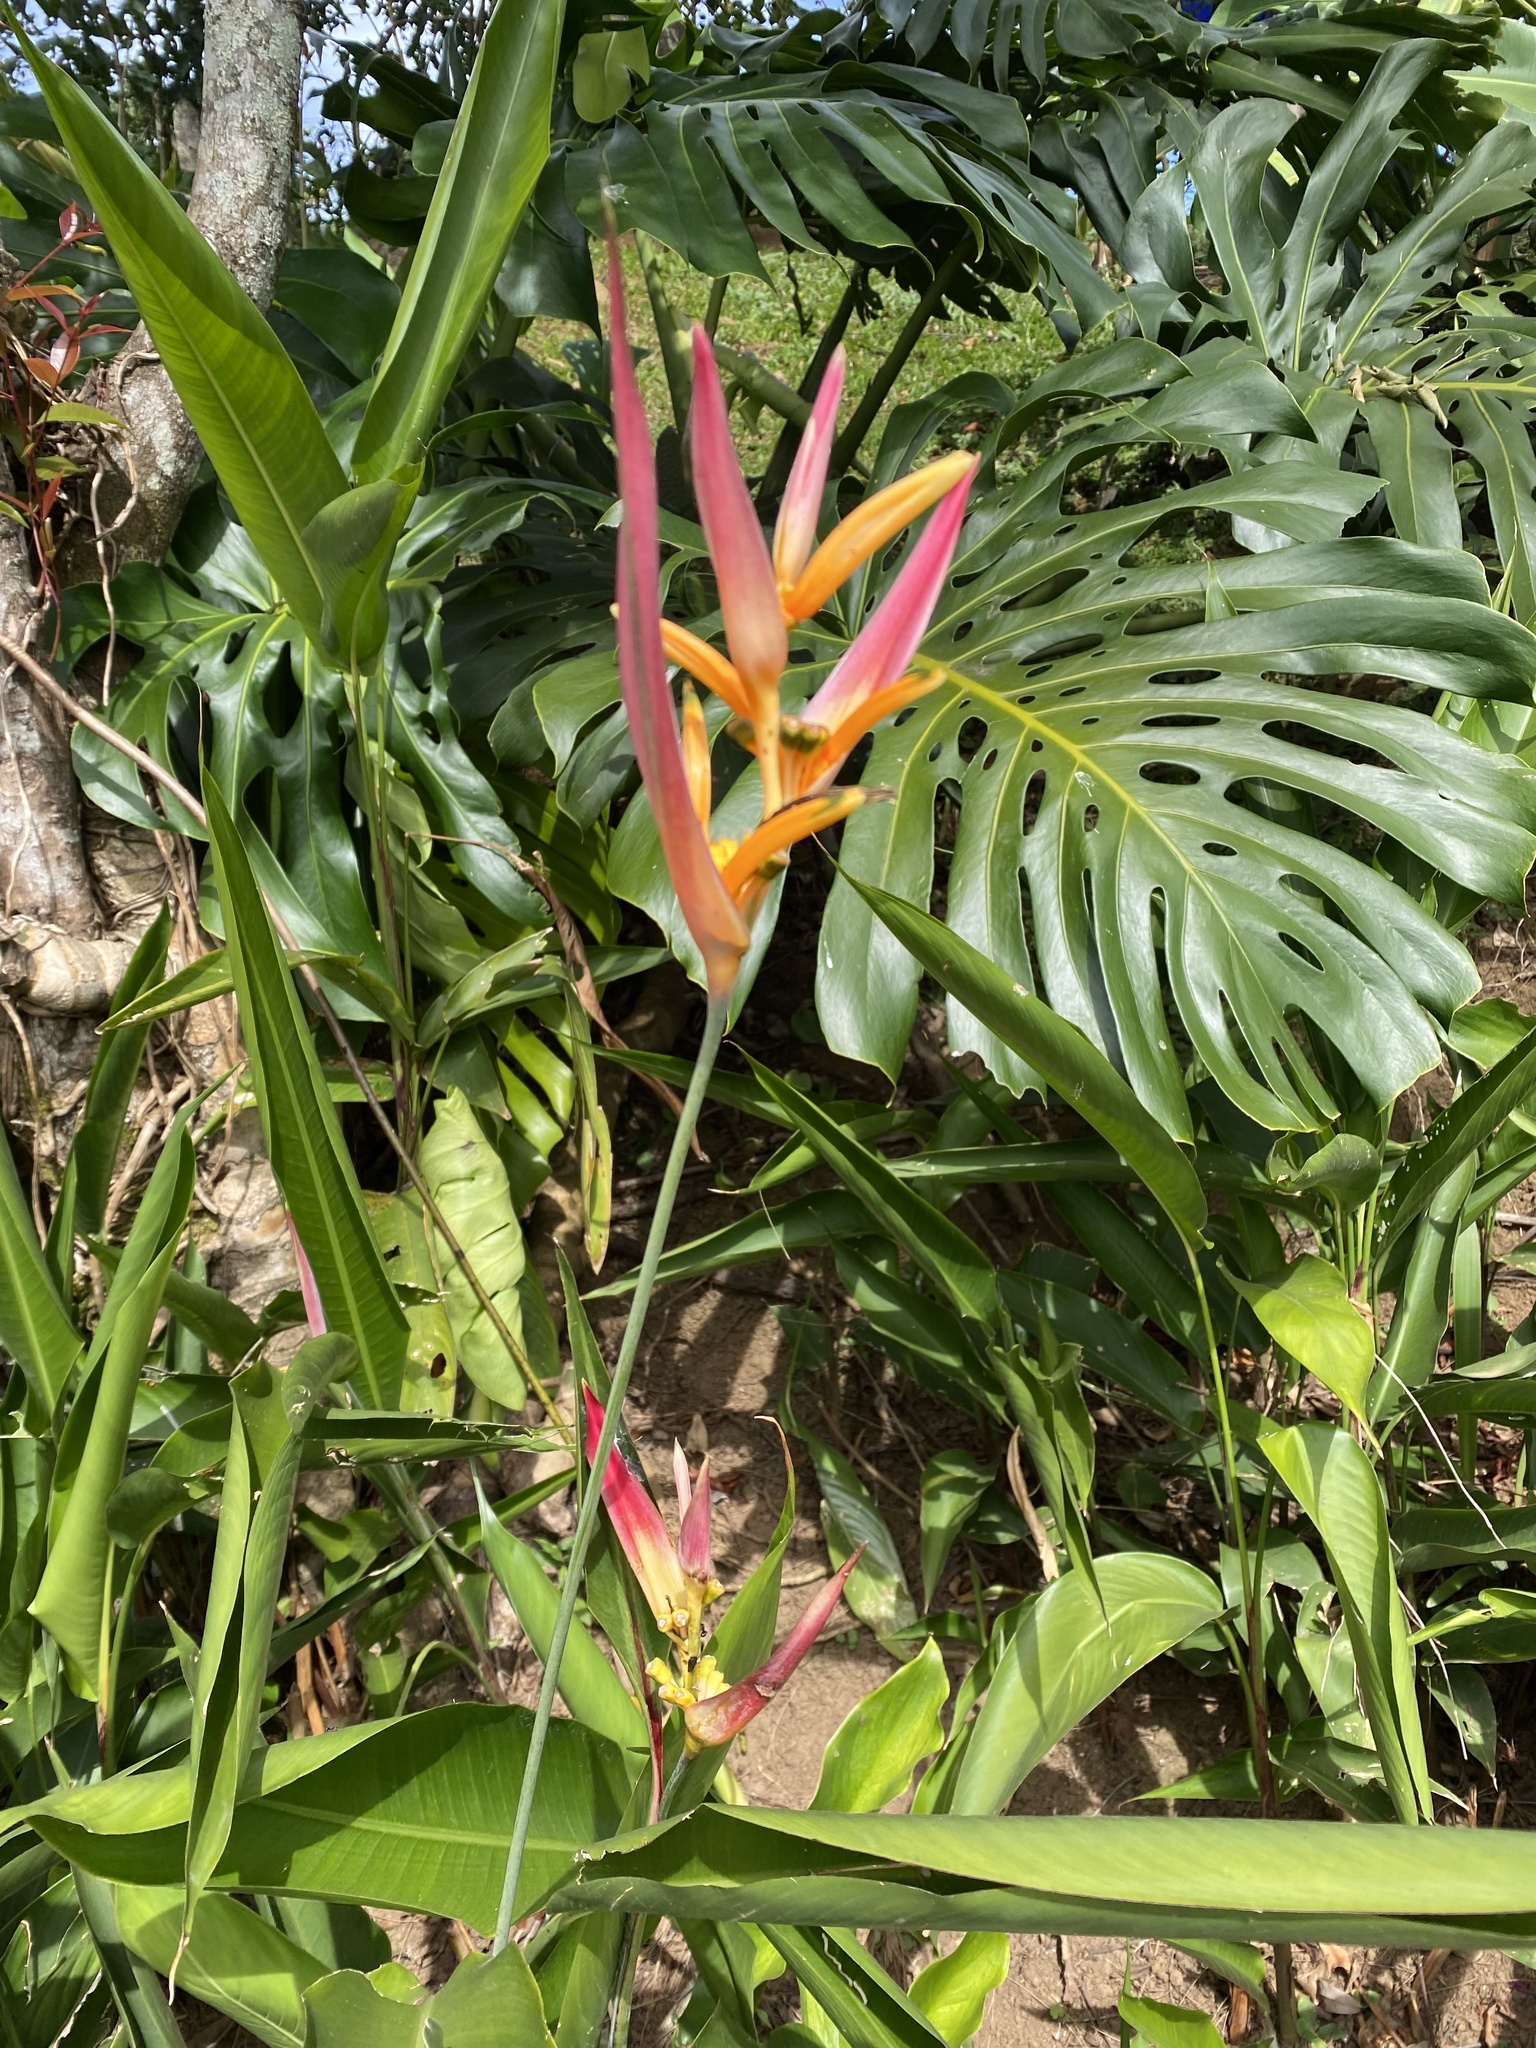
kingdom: Plantae
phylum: Tracheophyta
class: Liliopsida
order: Zingiberales
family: Heliconiaceae
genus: Heliconia
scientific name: Heliconia psittacorum
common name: Parrot's-flower
